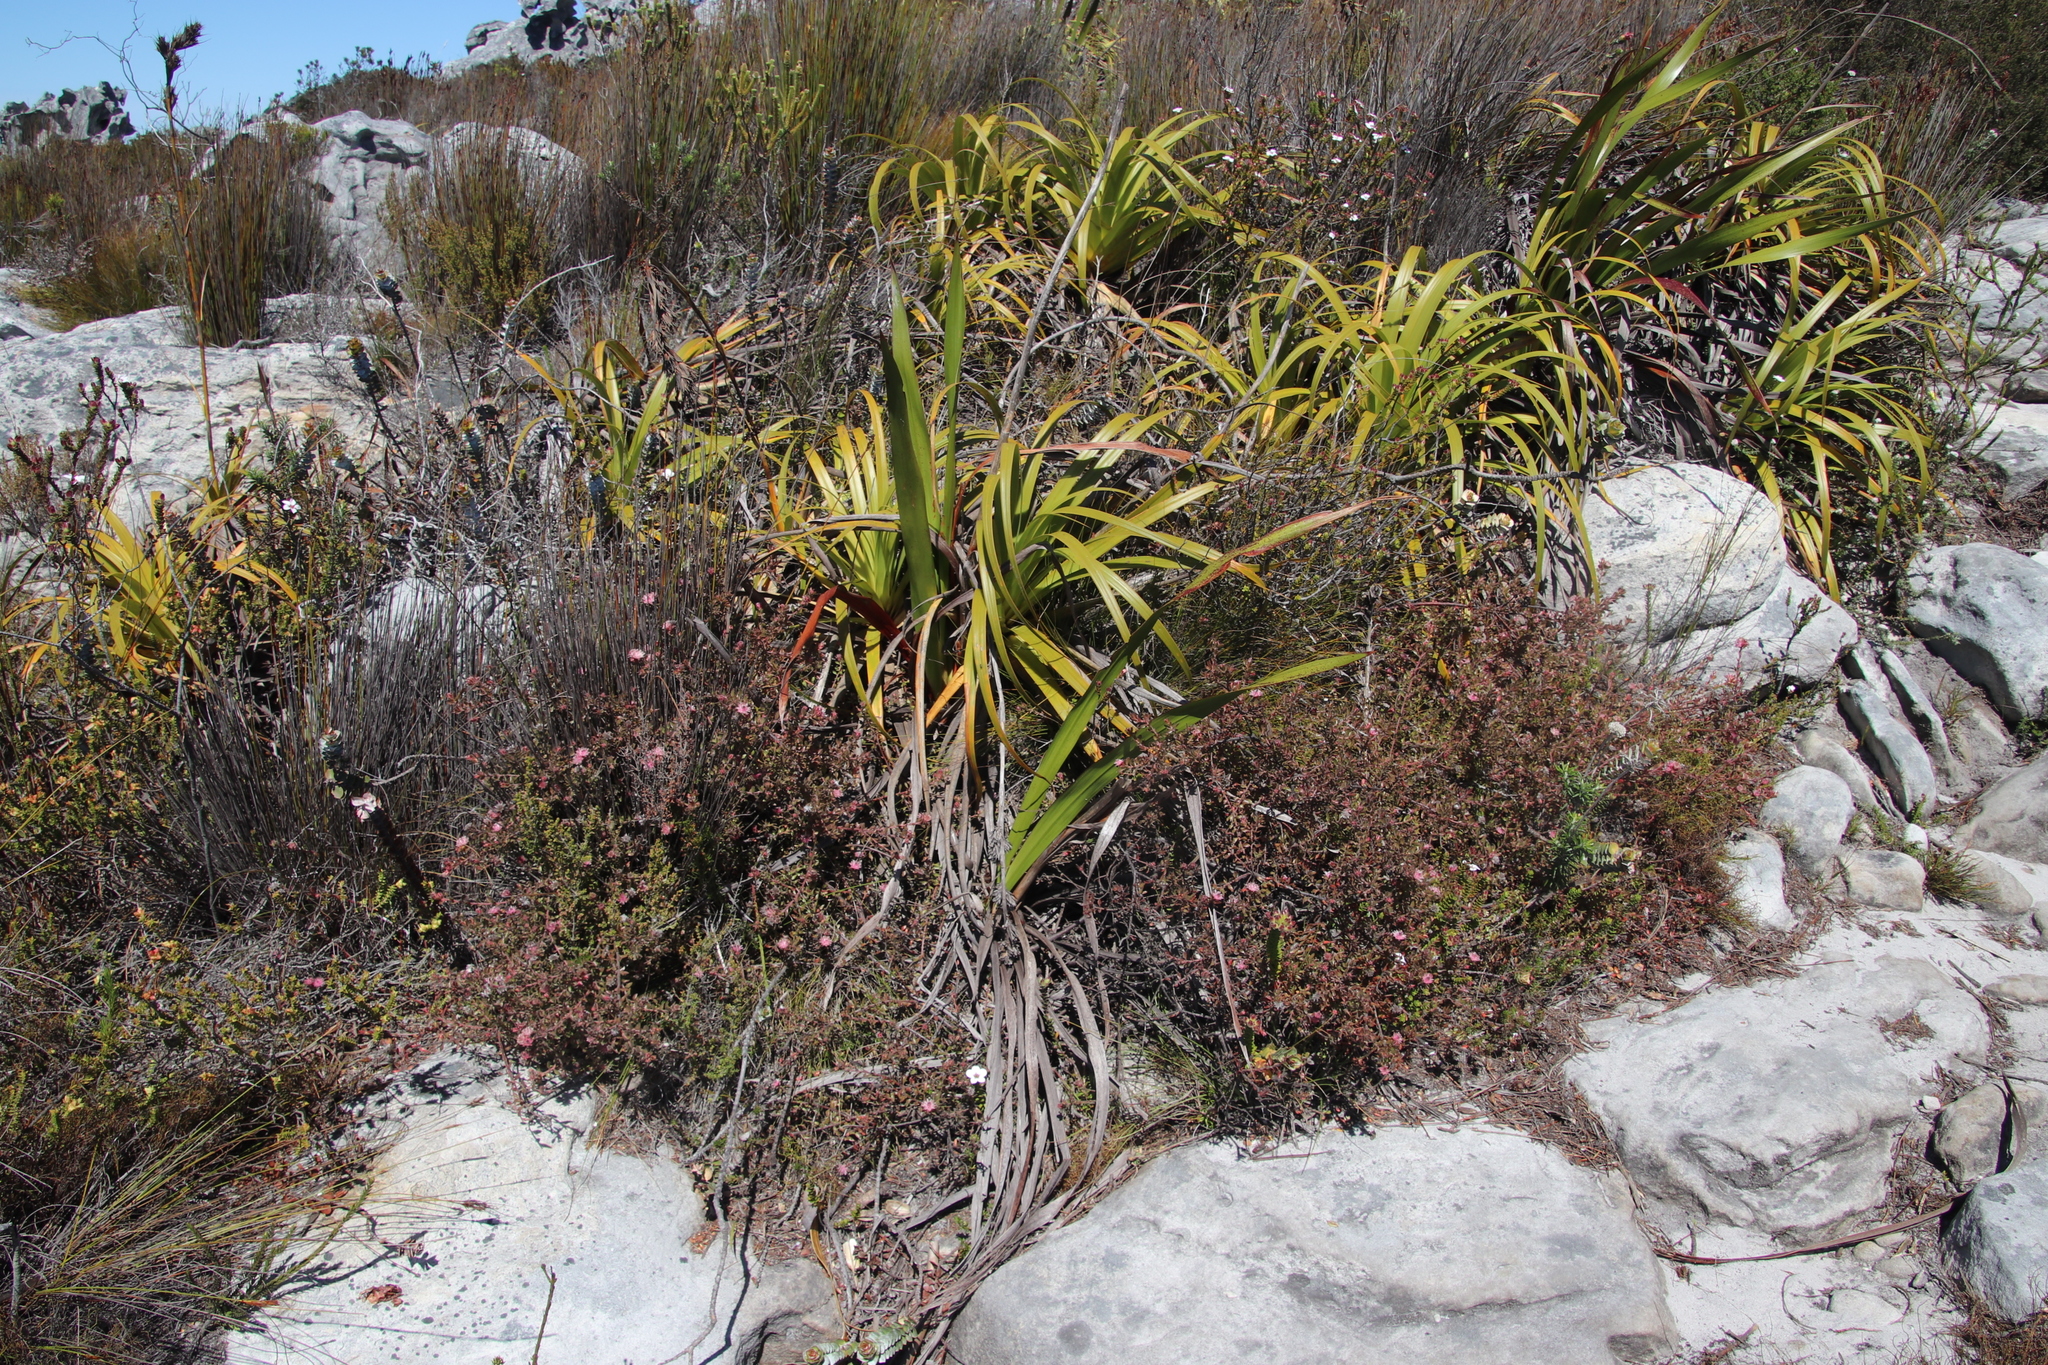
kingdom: Plantae
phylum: Tracheophyta
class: Magnoliopsida
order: Proteales
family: Proteaceae
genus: Diastella
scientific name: Diastella divaricata
